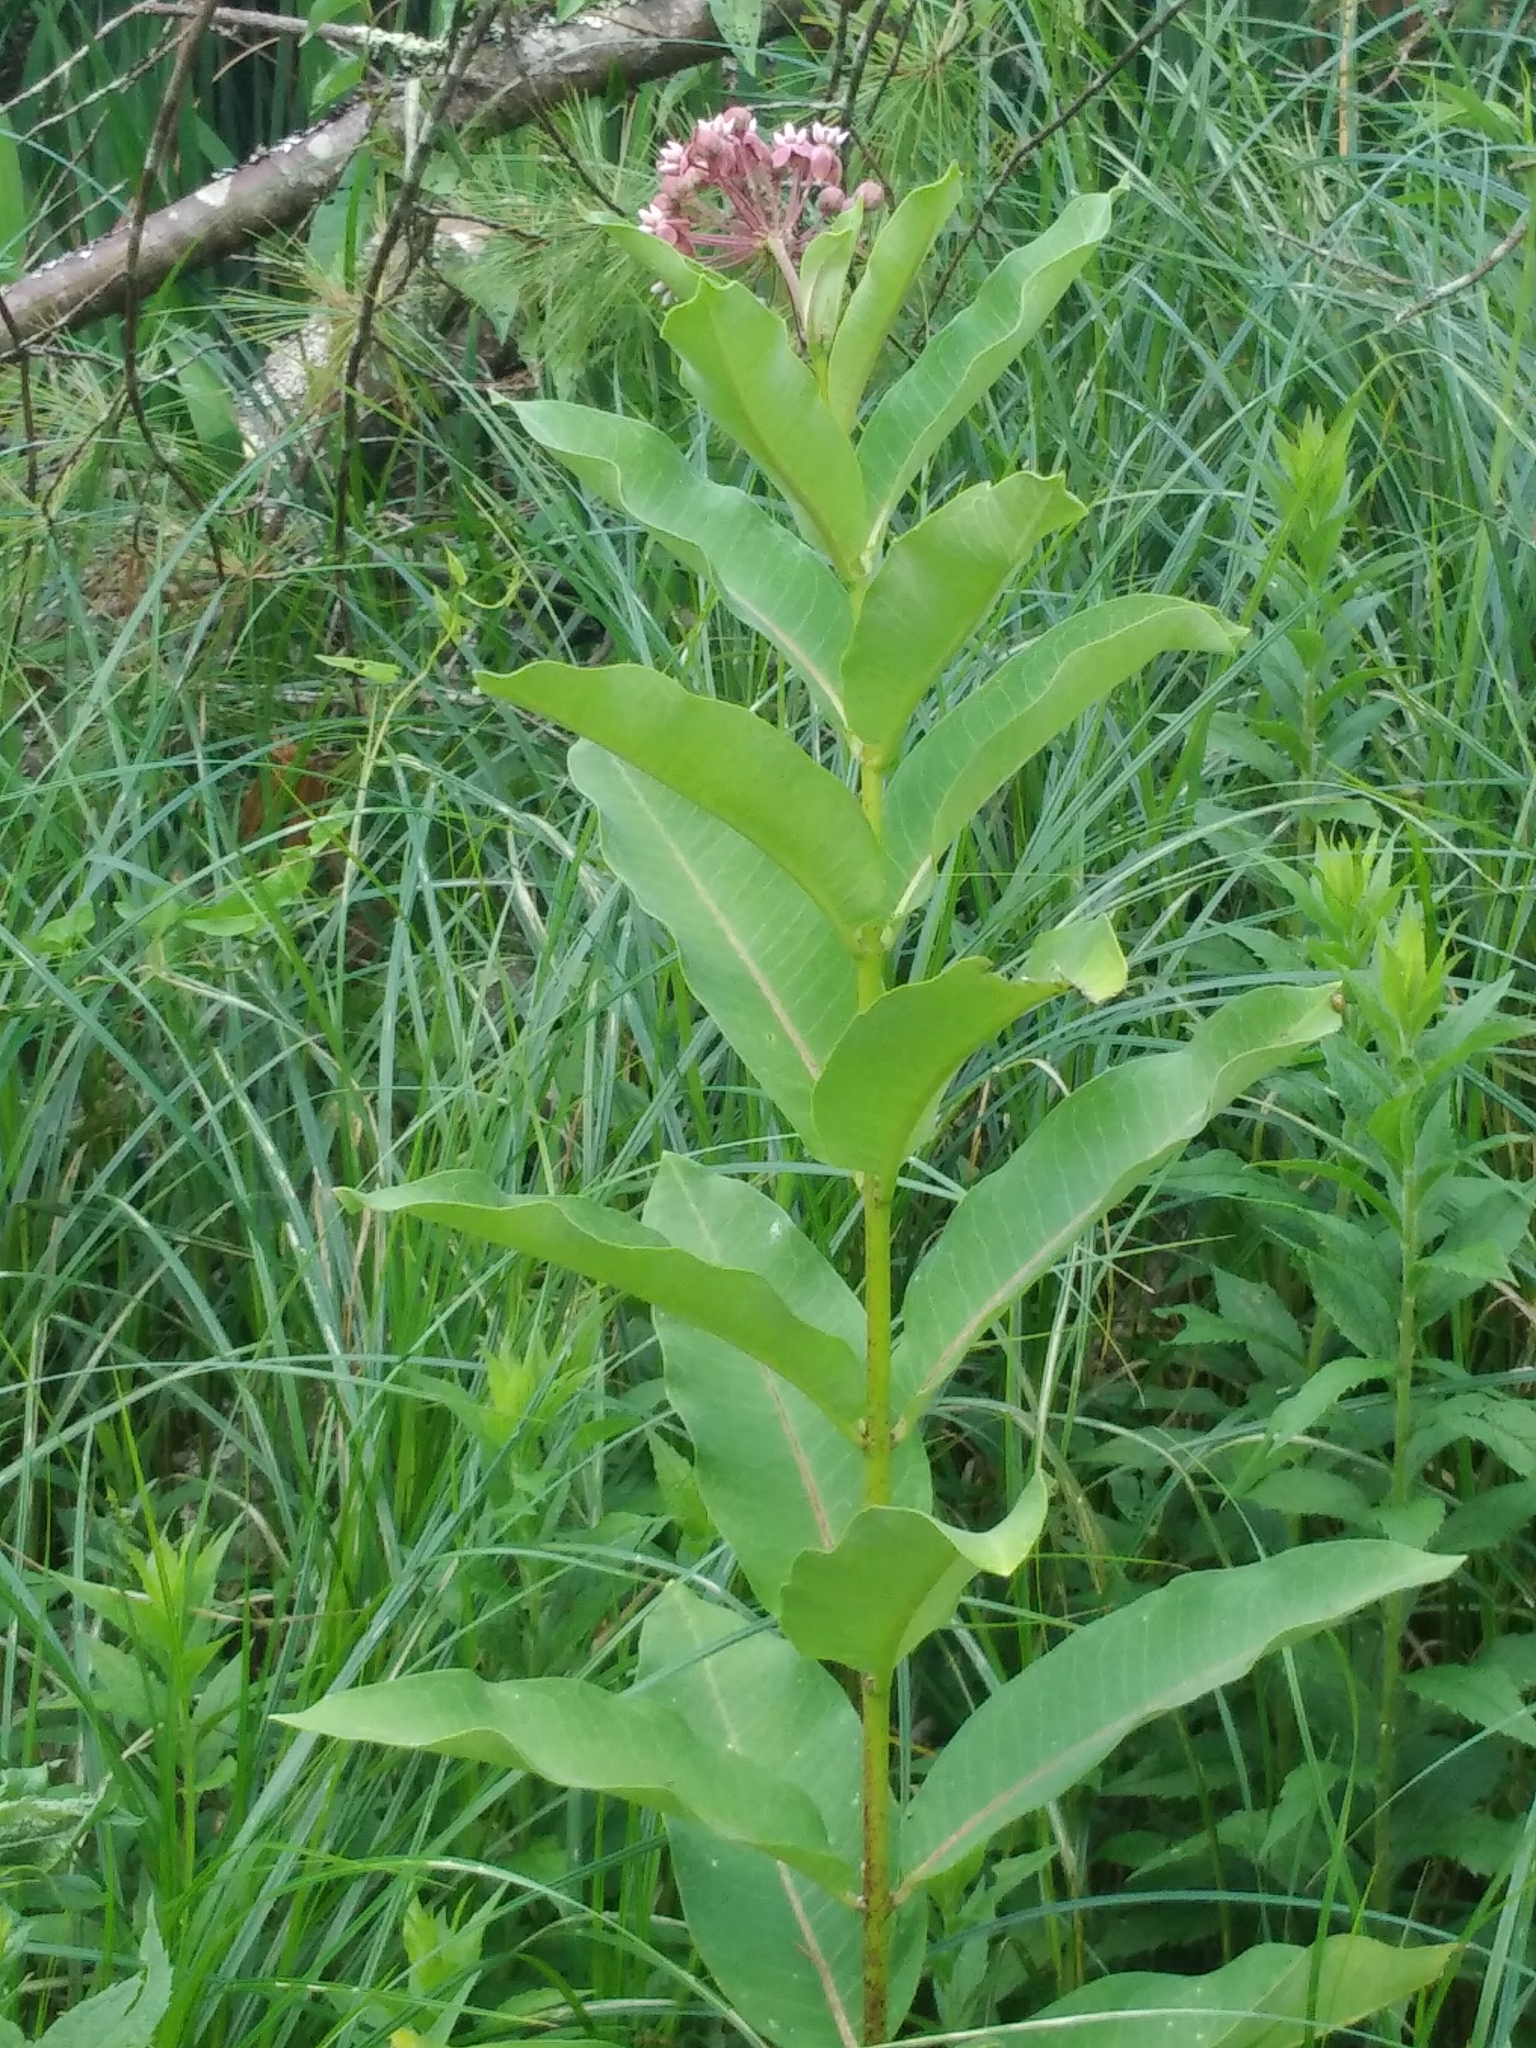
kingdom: Plantae
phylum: Tracheophyta
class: Magnoliopsida
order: Gentianales
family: Apocynaceae
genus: Asclepias
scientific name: Asclepias syriaca
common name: Common milkweed
